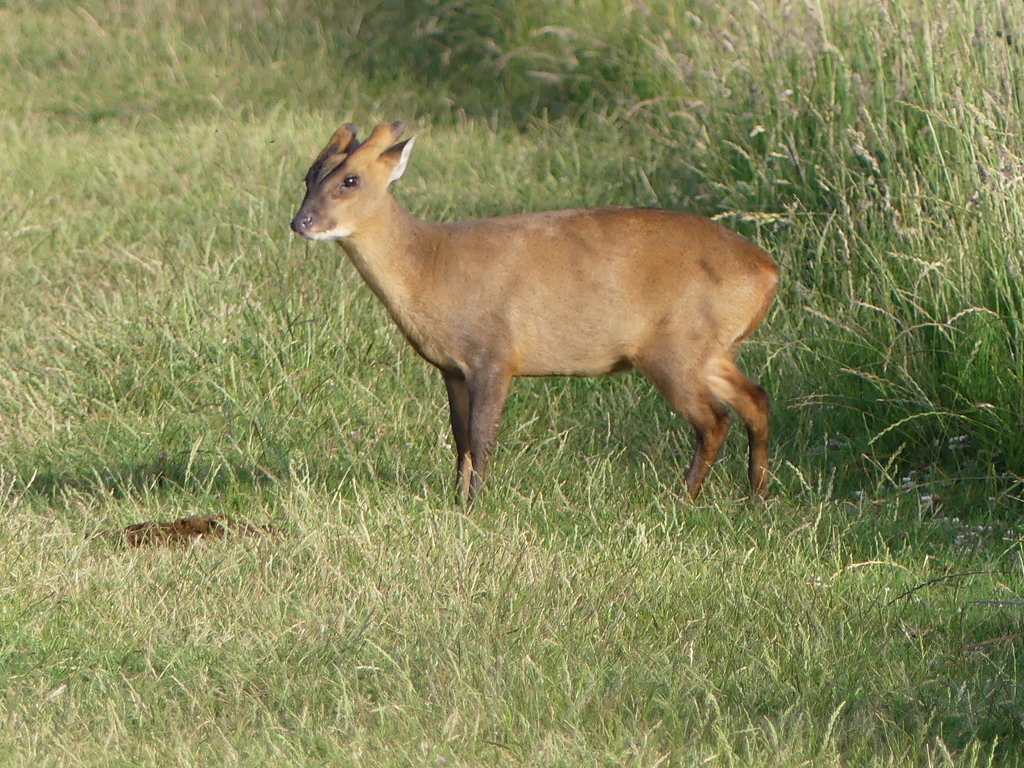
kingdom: Animalia
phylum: Chordata
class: Mammalia
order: Artiodactyla
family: Cervidae
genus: Muntiacus
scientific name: Muntiacus reevesi
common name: Reeves' muntjac
